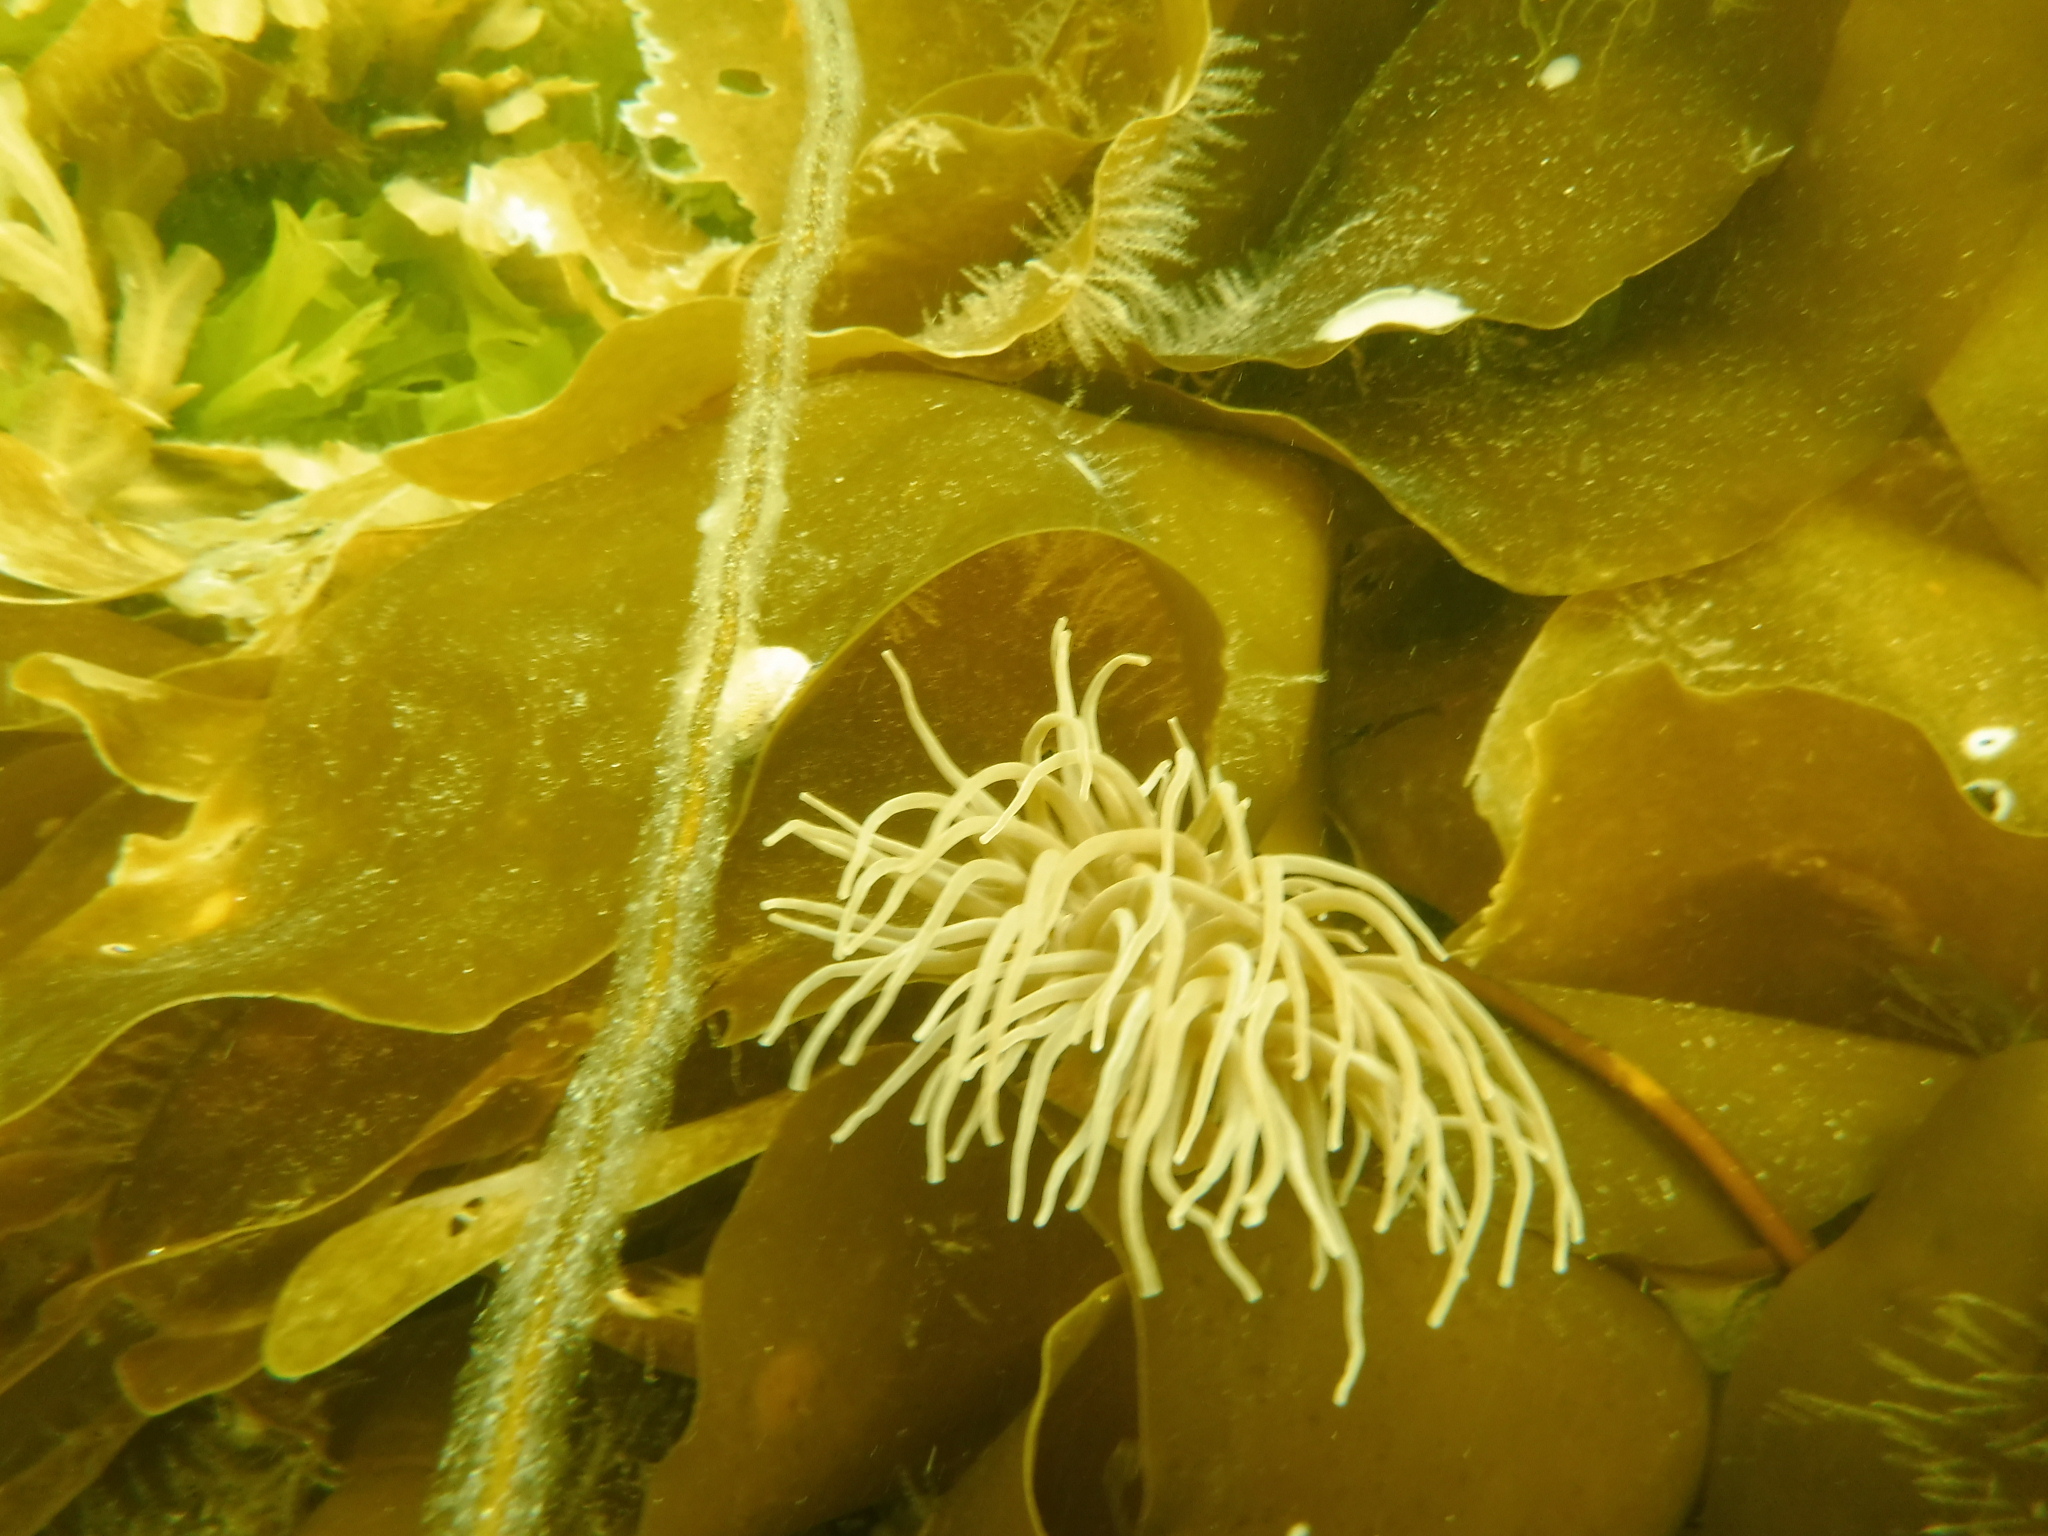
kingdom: Animalia
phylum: Cnidaria
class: Anthozoa
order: Actiniaria
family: Actiniidae
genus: Anemonia
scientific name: Anemonia viridis
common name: Snakelocks anemone
